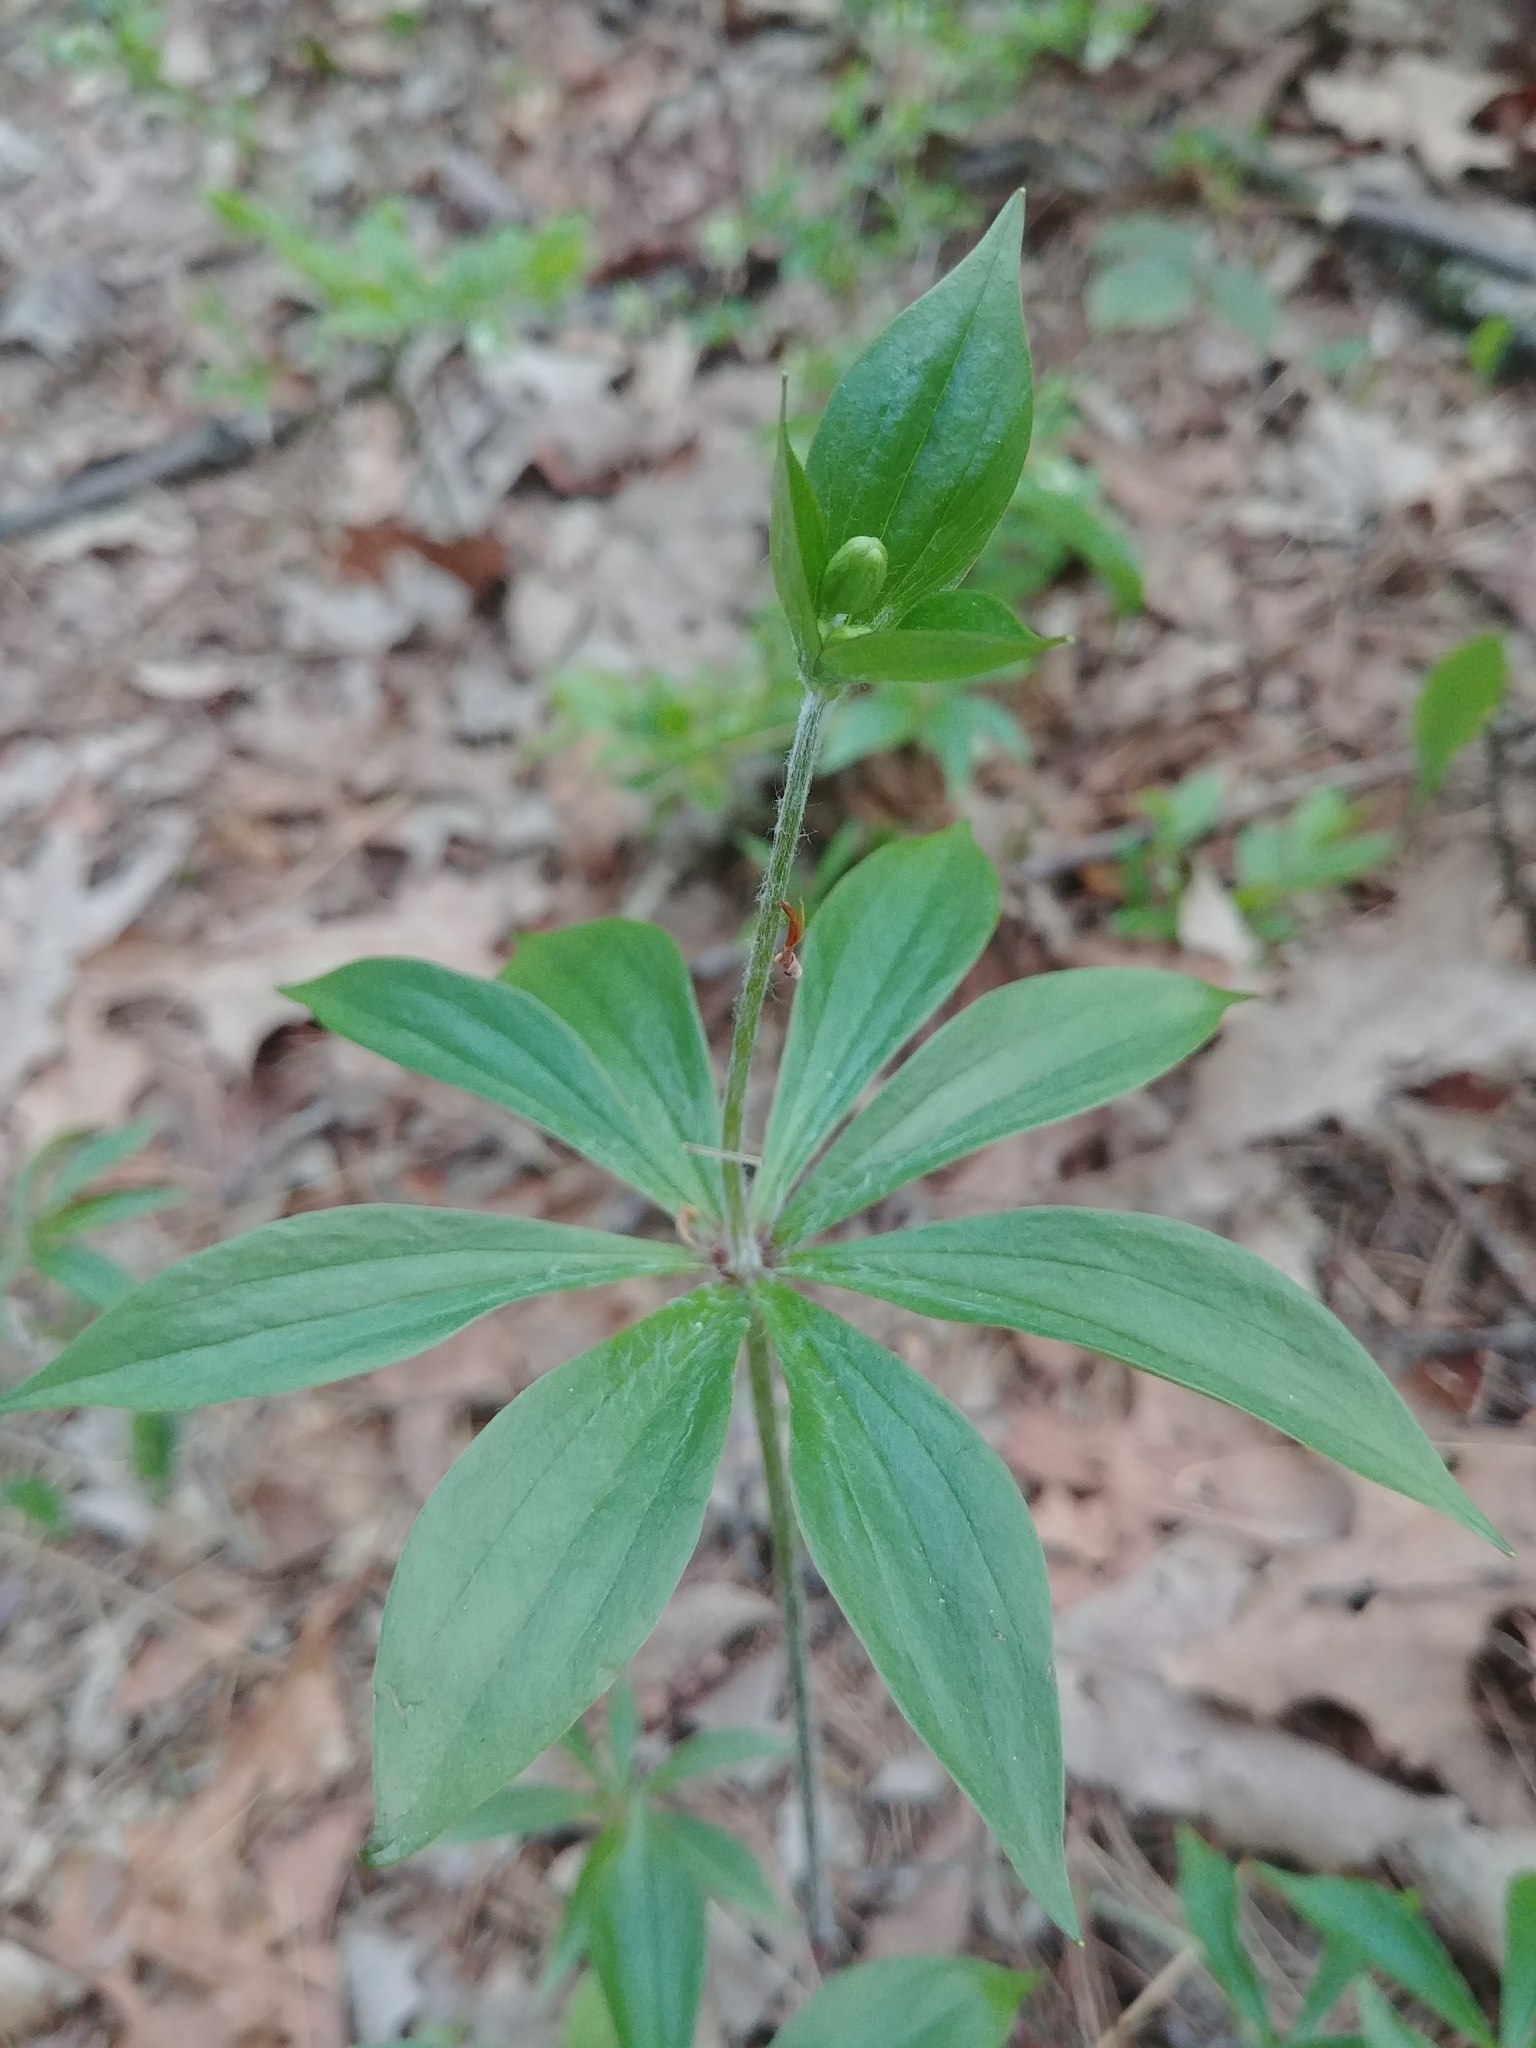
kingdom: Plantae
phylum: Tracheophyta
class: Liliopsida
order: Liliales
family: Liliaceae
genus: Medeola
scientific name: Medeola virginiana
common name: Indian cucumber-root
